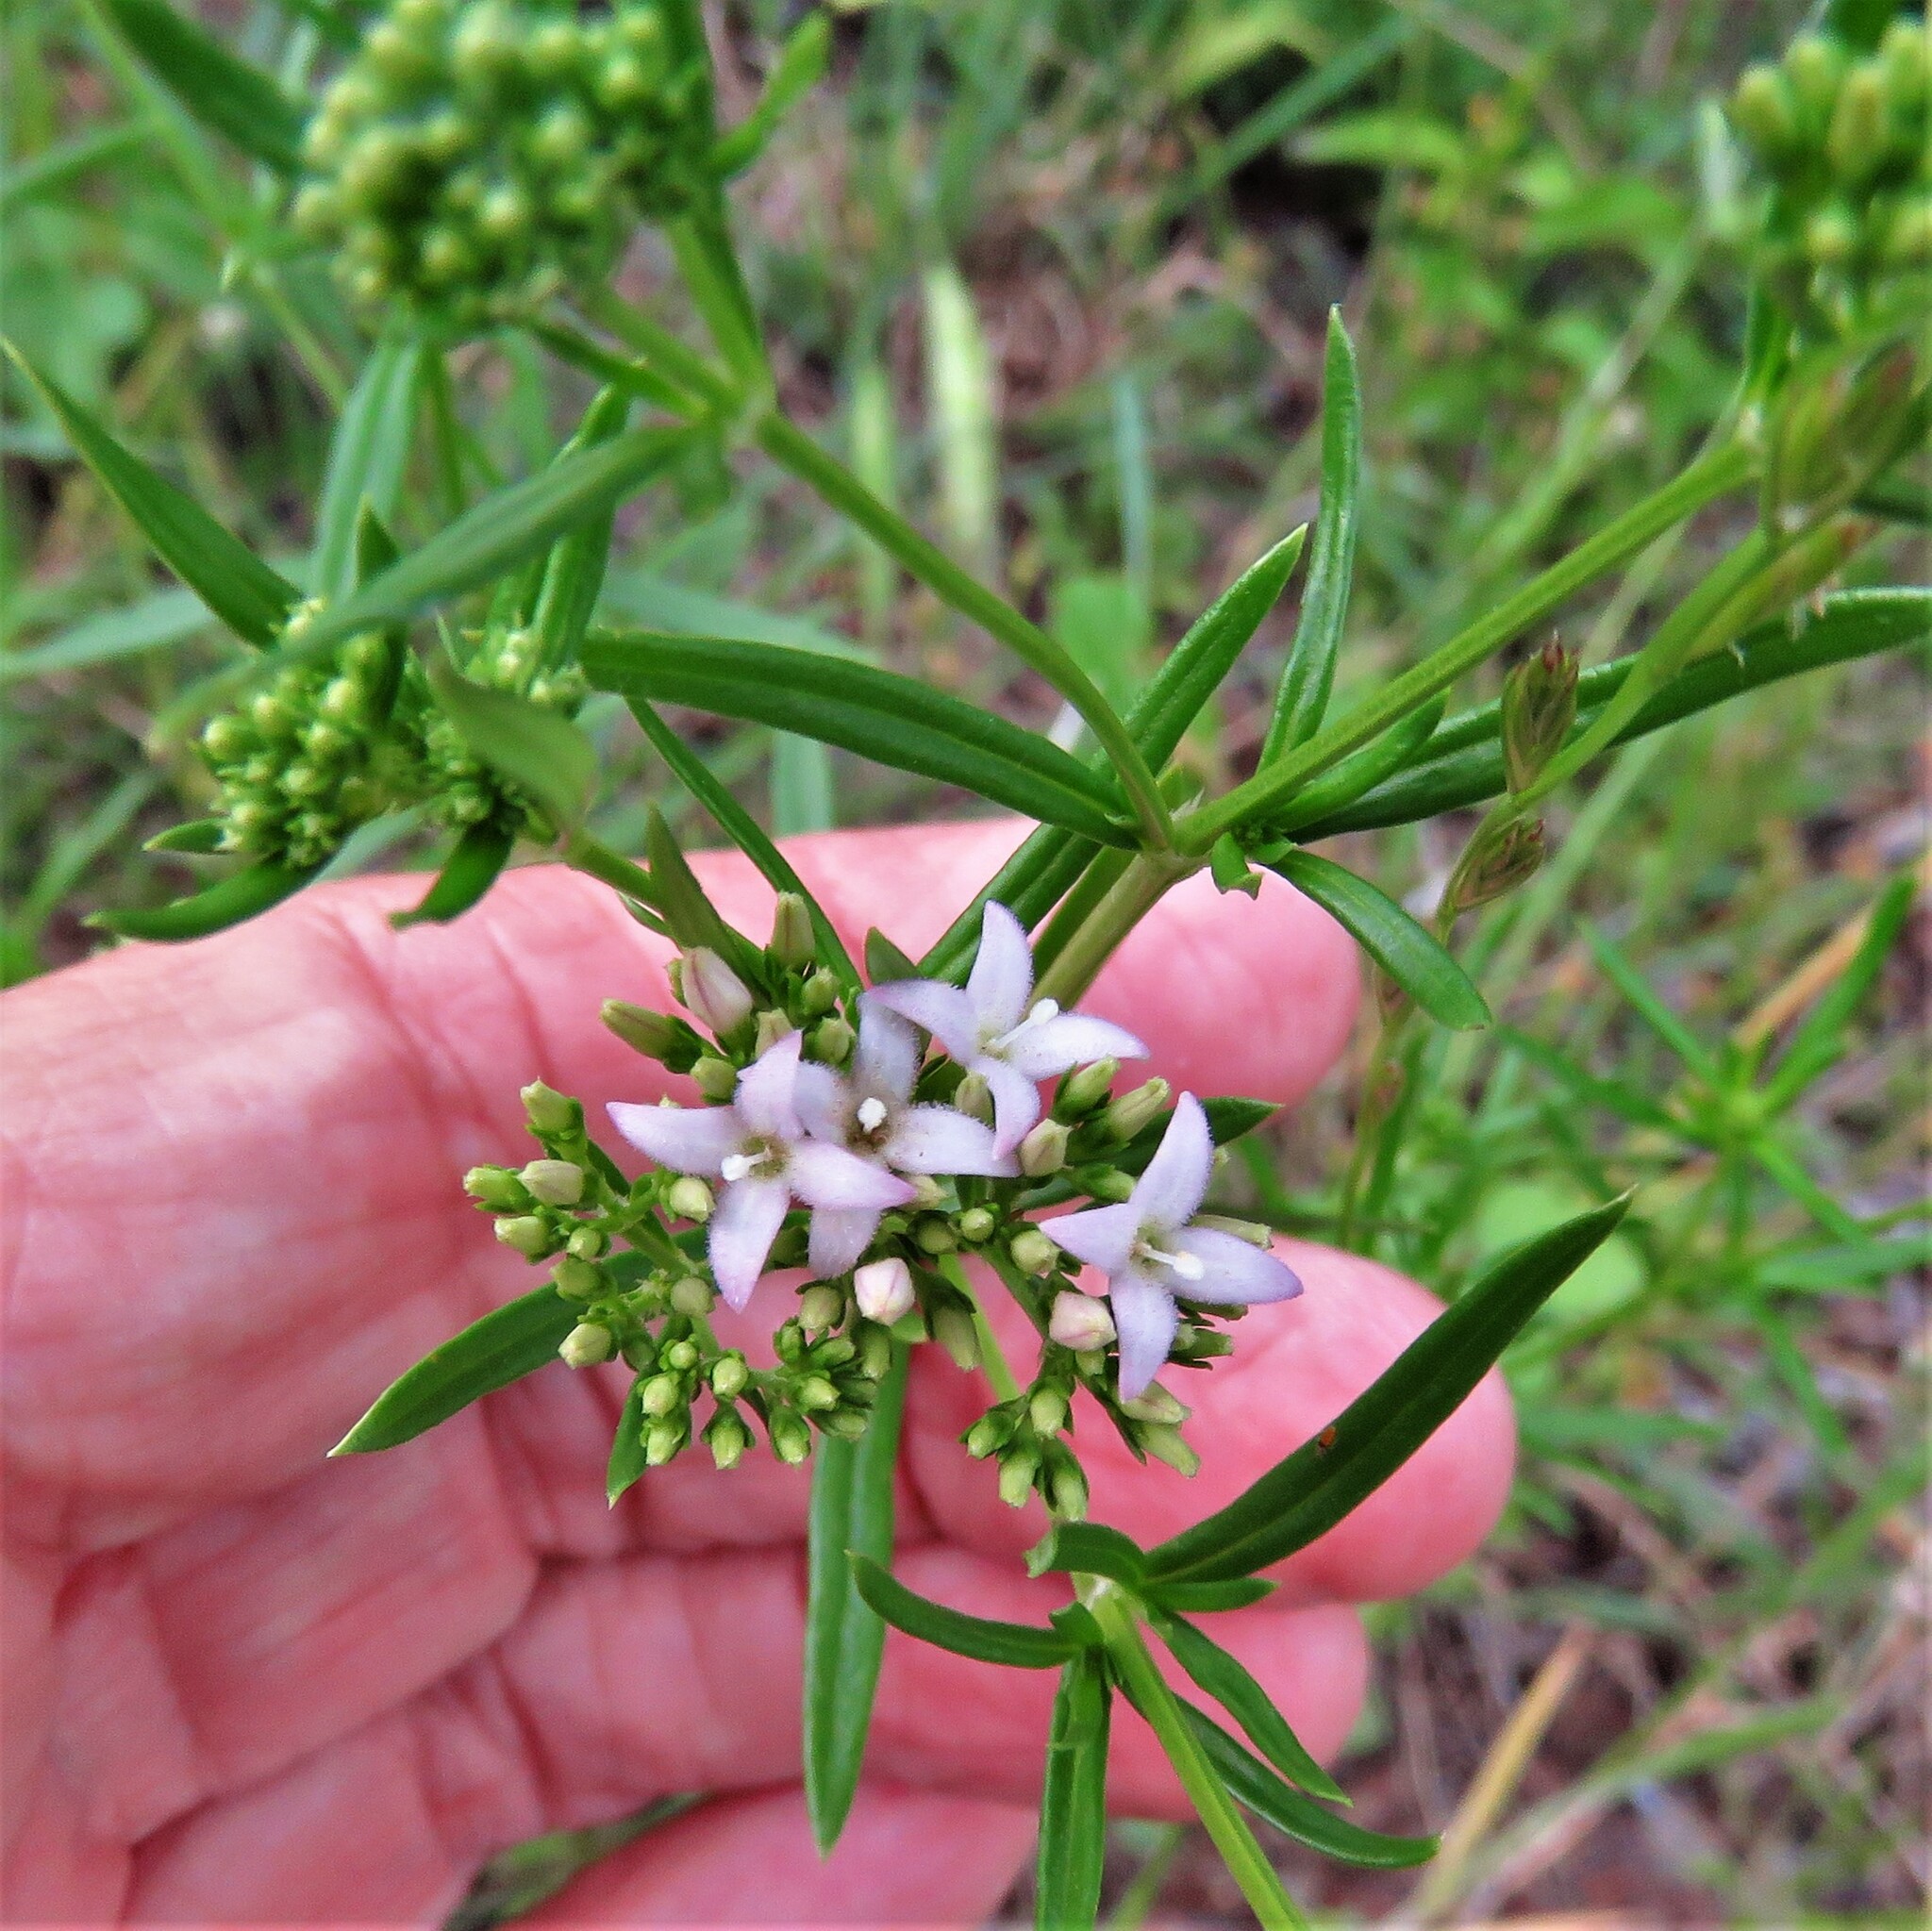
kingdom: Plantae
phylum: Tracheophyta
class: Magnoliopsida
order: Gentianales
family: Rubiaceae
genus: Stenaria
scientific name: Stenaria nigricans
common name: Diamondflowers
